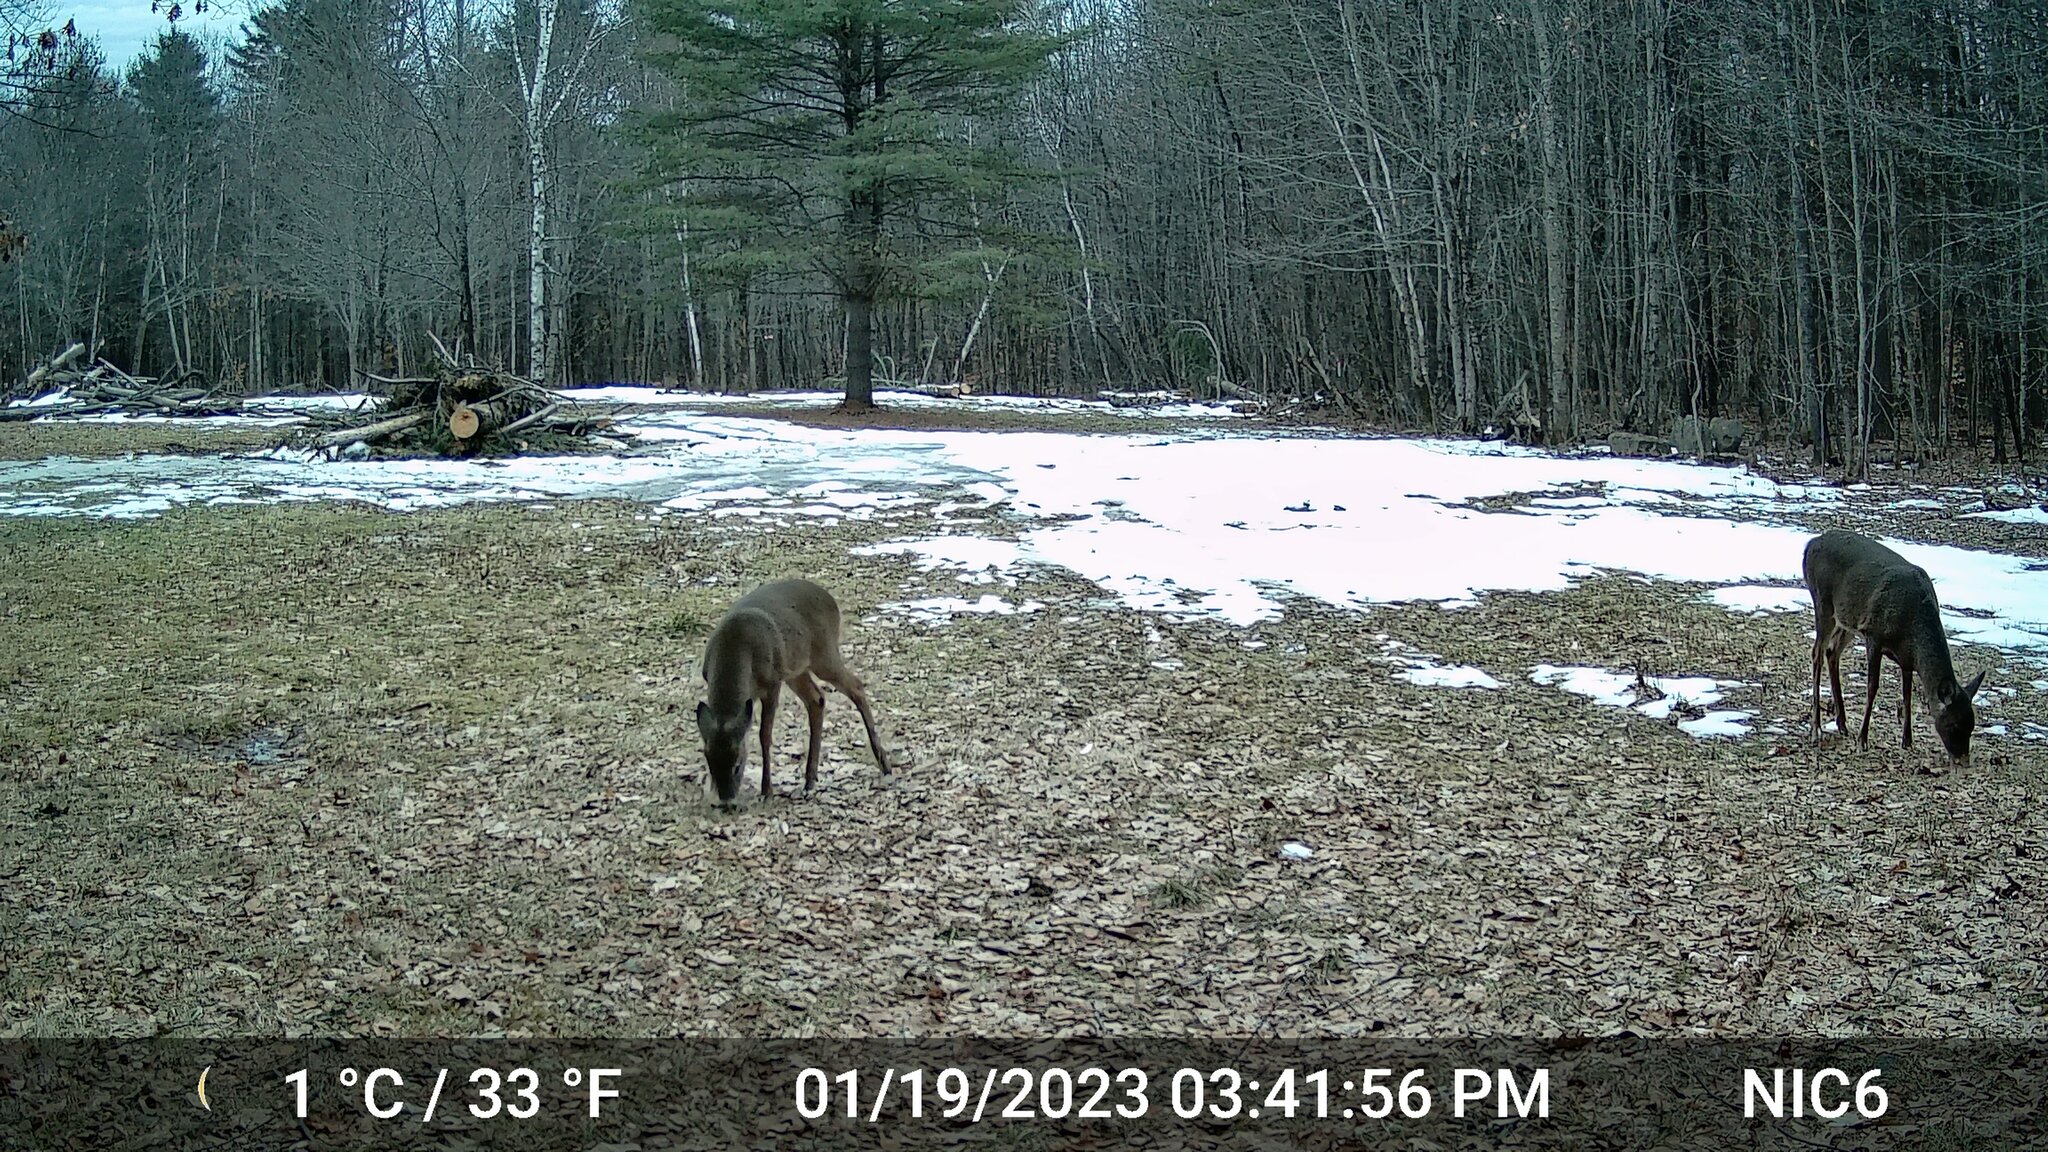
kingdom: Animalia
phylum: Chordata
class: Mammalia
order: Artiodactyla
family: Cervidae
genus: Odocoileus
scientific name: Odocoileus virginianus
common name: White-tailed deer
